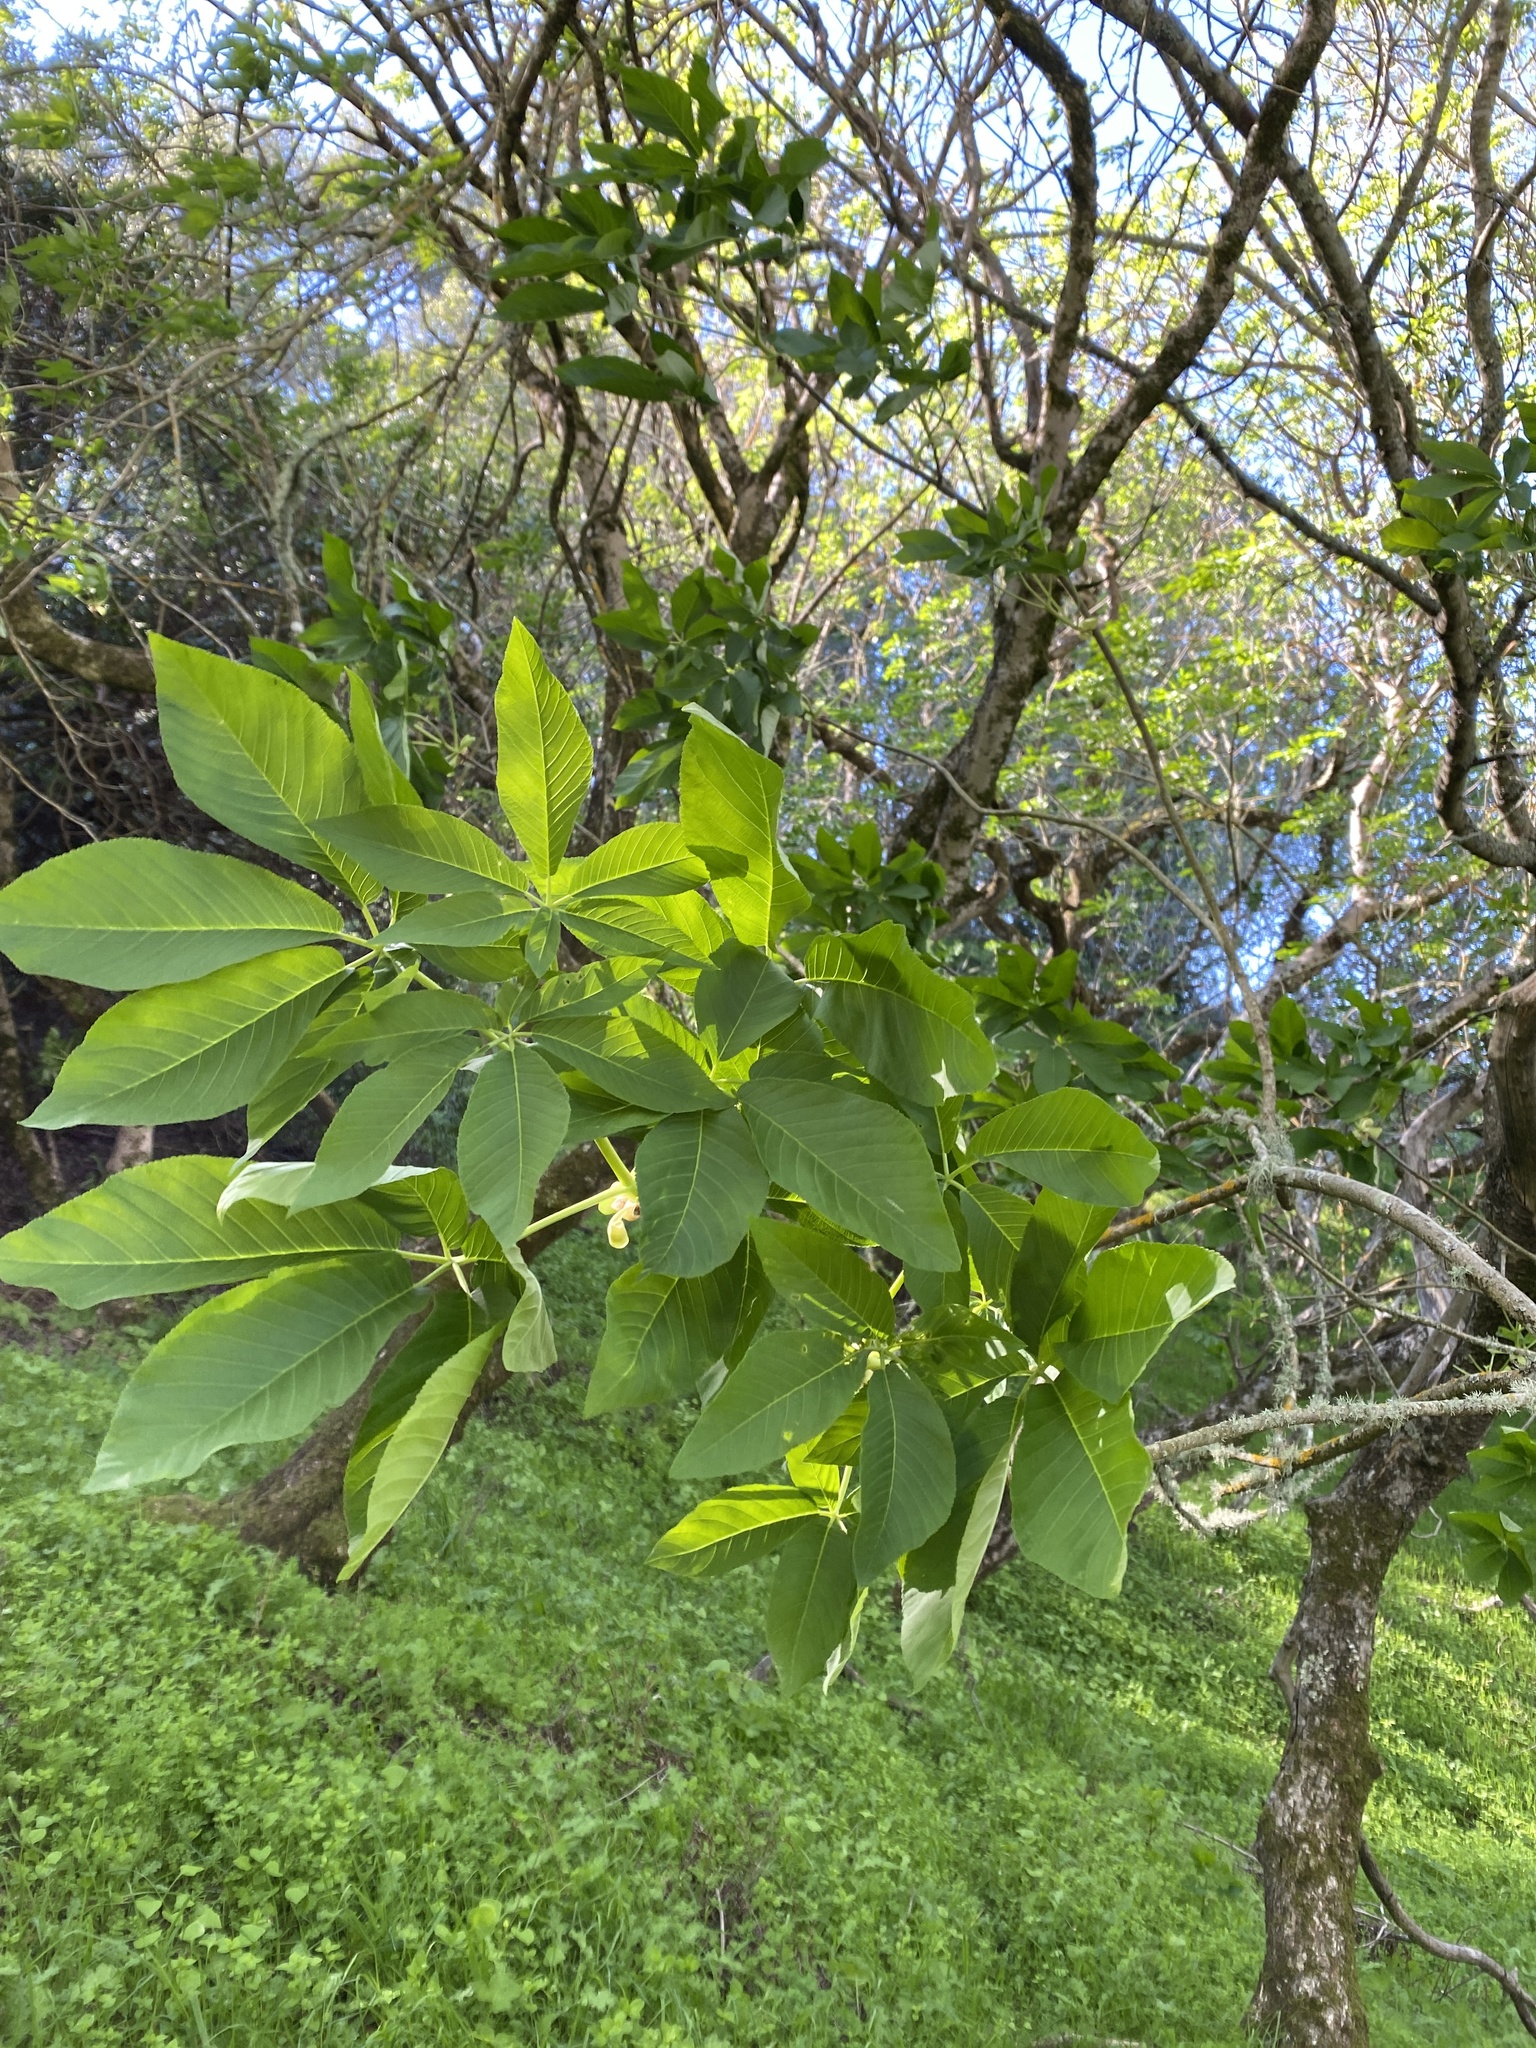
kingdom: Plantae
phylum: Tracheophyta
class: Magnoliopsida
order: Sapindales
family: Sapindaceae
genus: Aesculus
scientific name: Aesculus californica
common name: California buckeye
